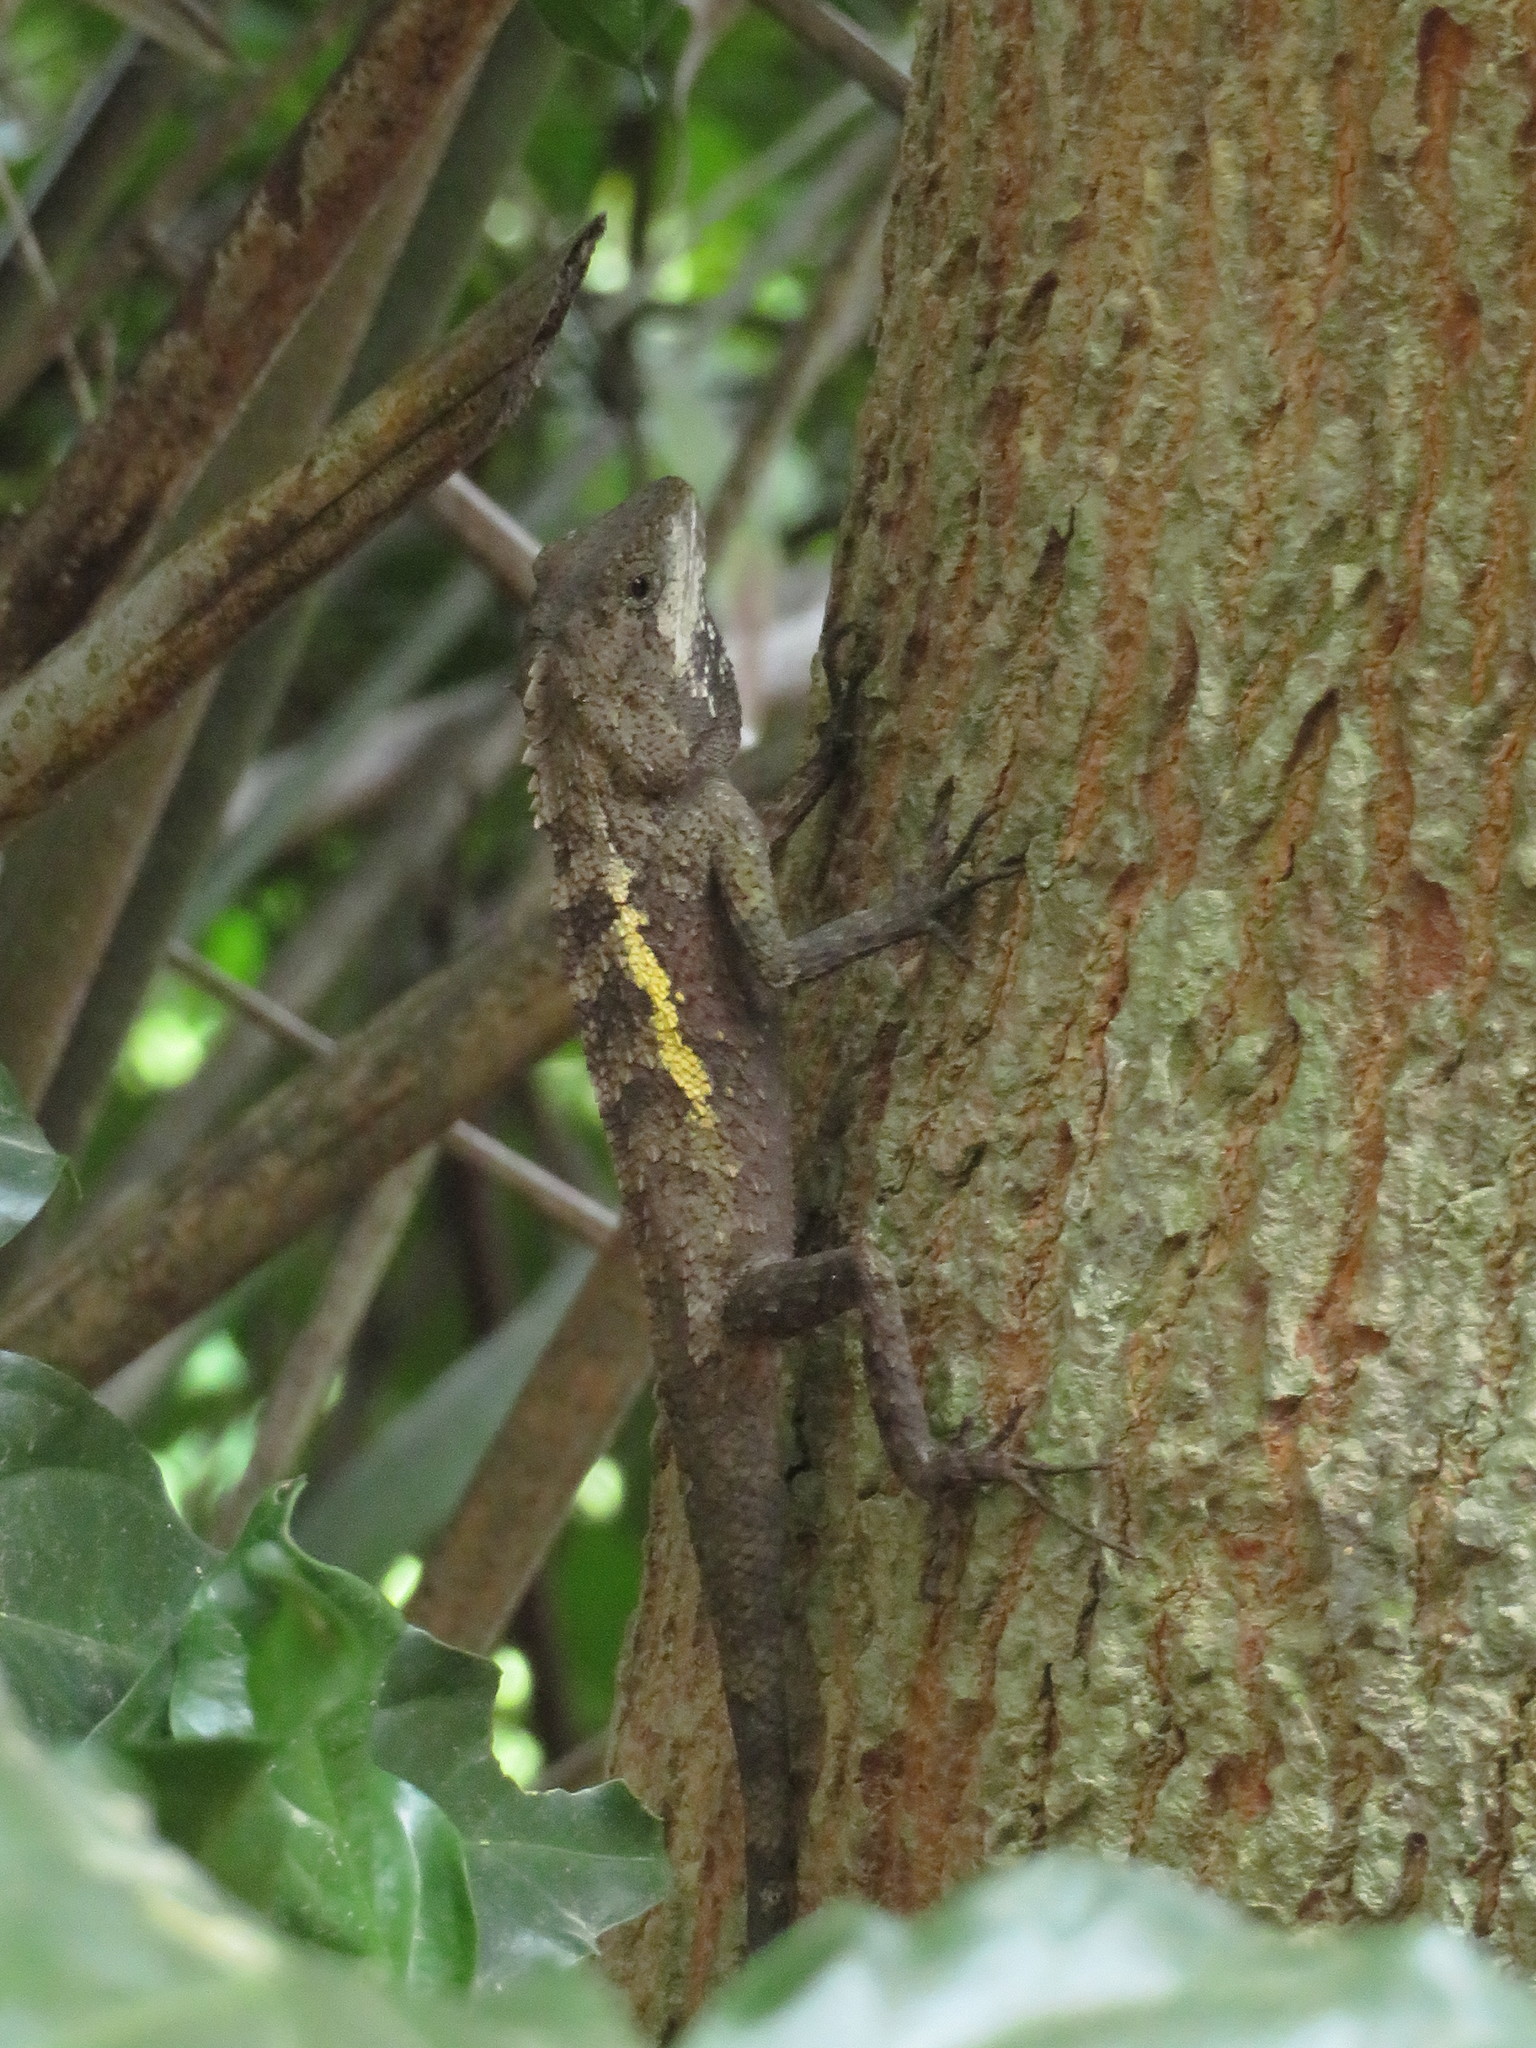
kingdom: Animalia
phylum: Chordata
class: Squamata
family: Agamidae
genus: Diploderma
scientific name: Diploderma swinhonis
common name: Taiwan japalure
